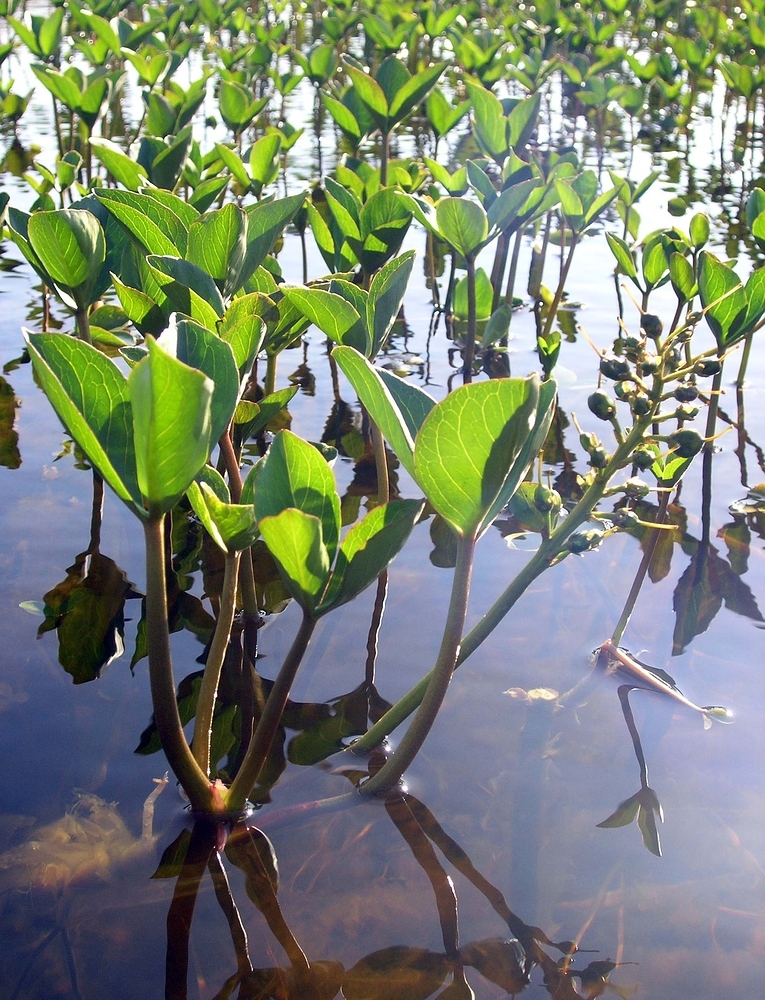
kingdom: Plantae
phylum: Tracheophyta
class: Magnoliopsida
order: Asterales
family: Menyanthaceae
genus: Menyanthes
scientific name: Menyanthes trifoliata
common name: Bogbean
